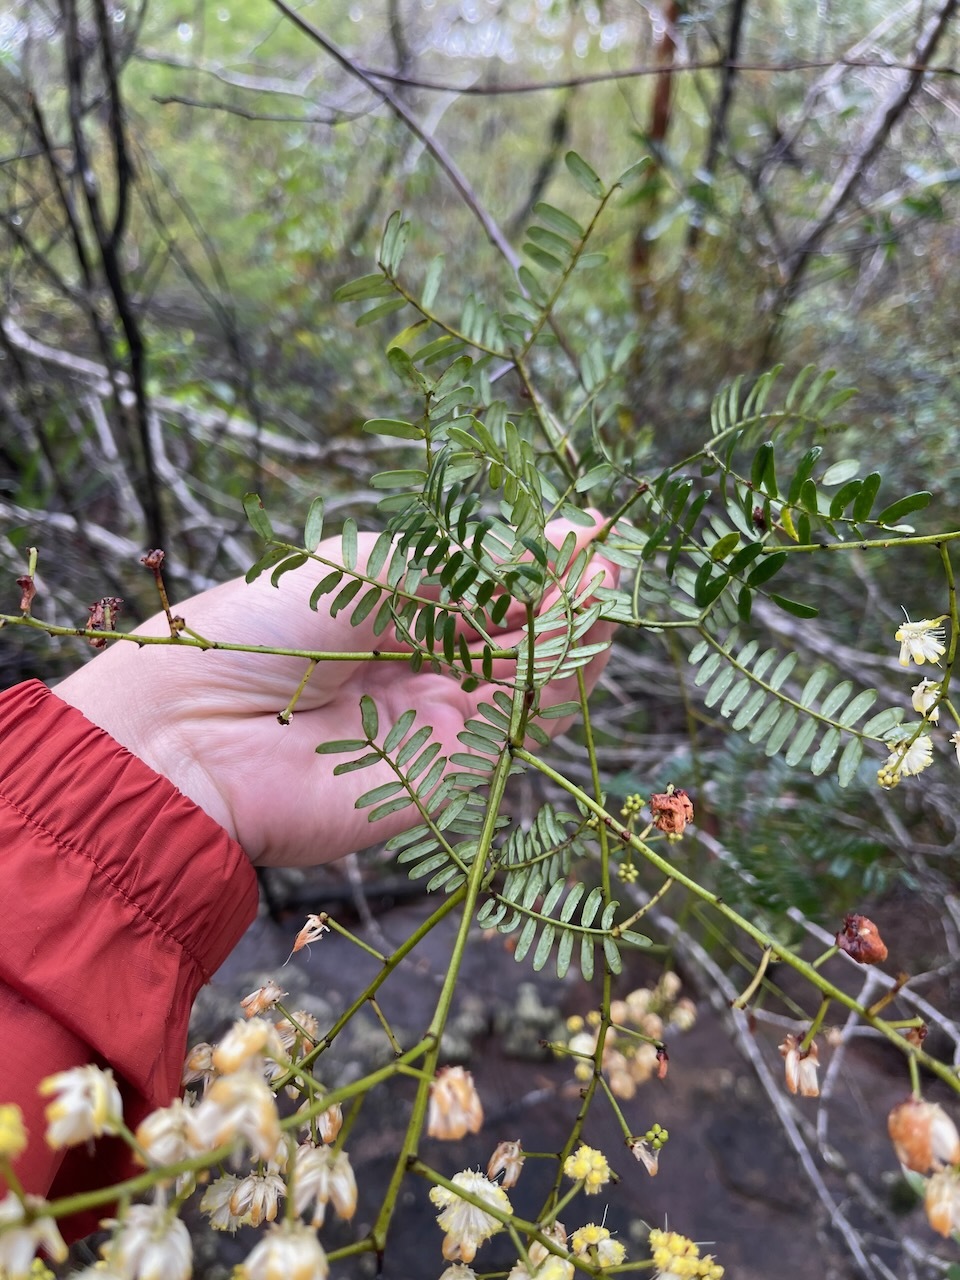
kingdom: Plantae
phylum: Tracheophyta
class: Magnoliopsida
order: Fabales
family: Fabaceae
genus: Acacia
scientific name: Acacia terminalis
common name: Cedar wattle
